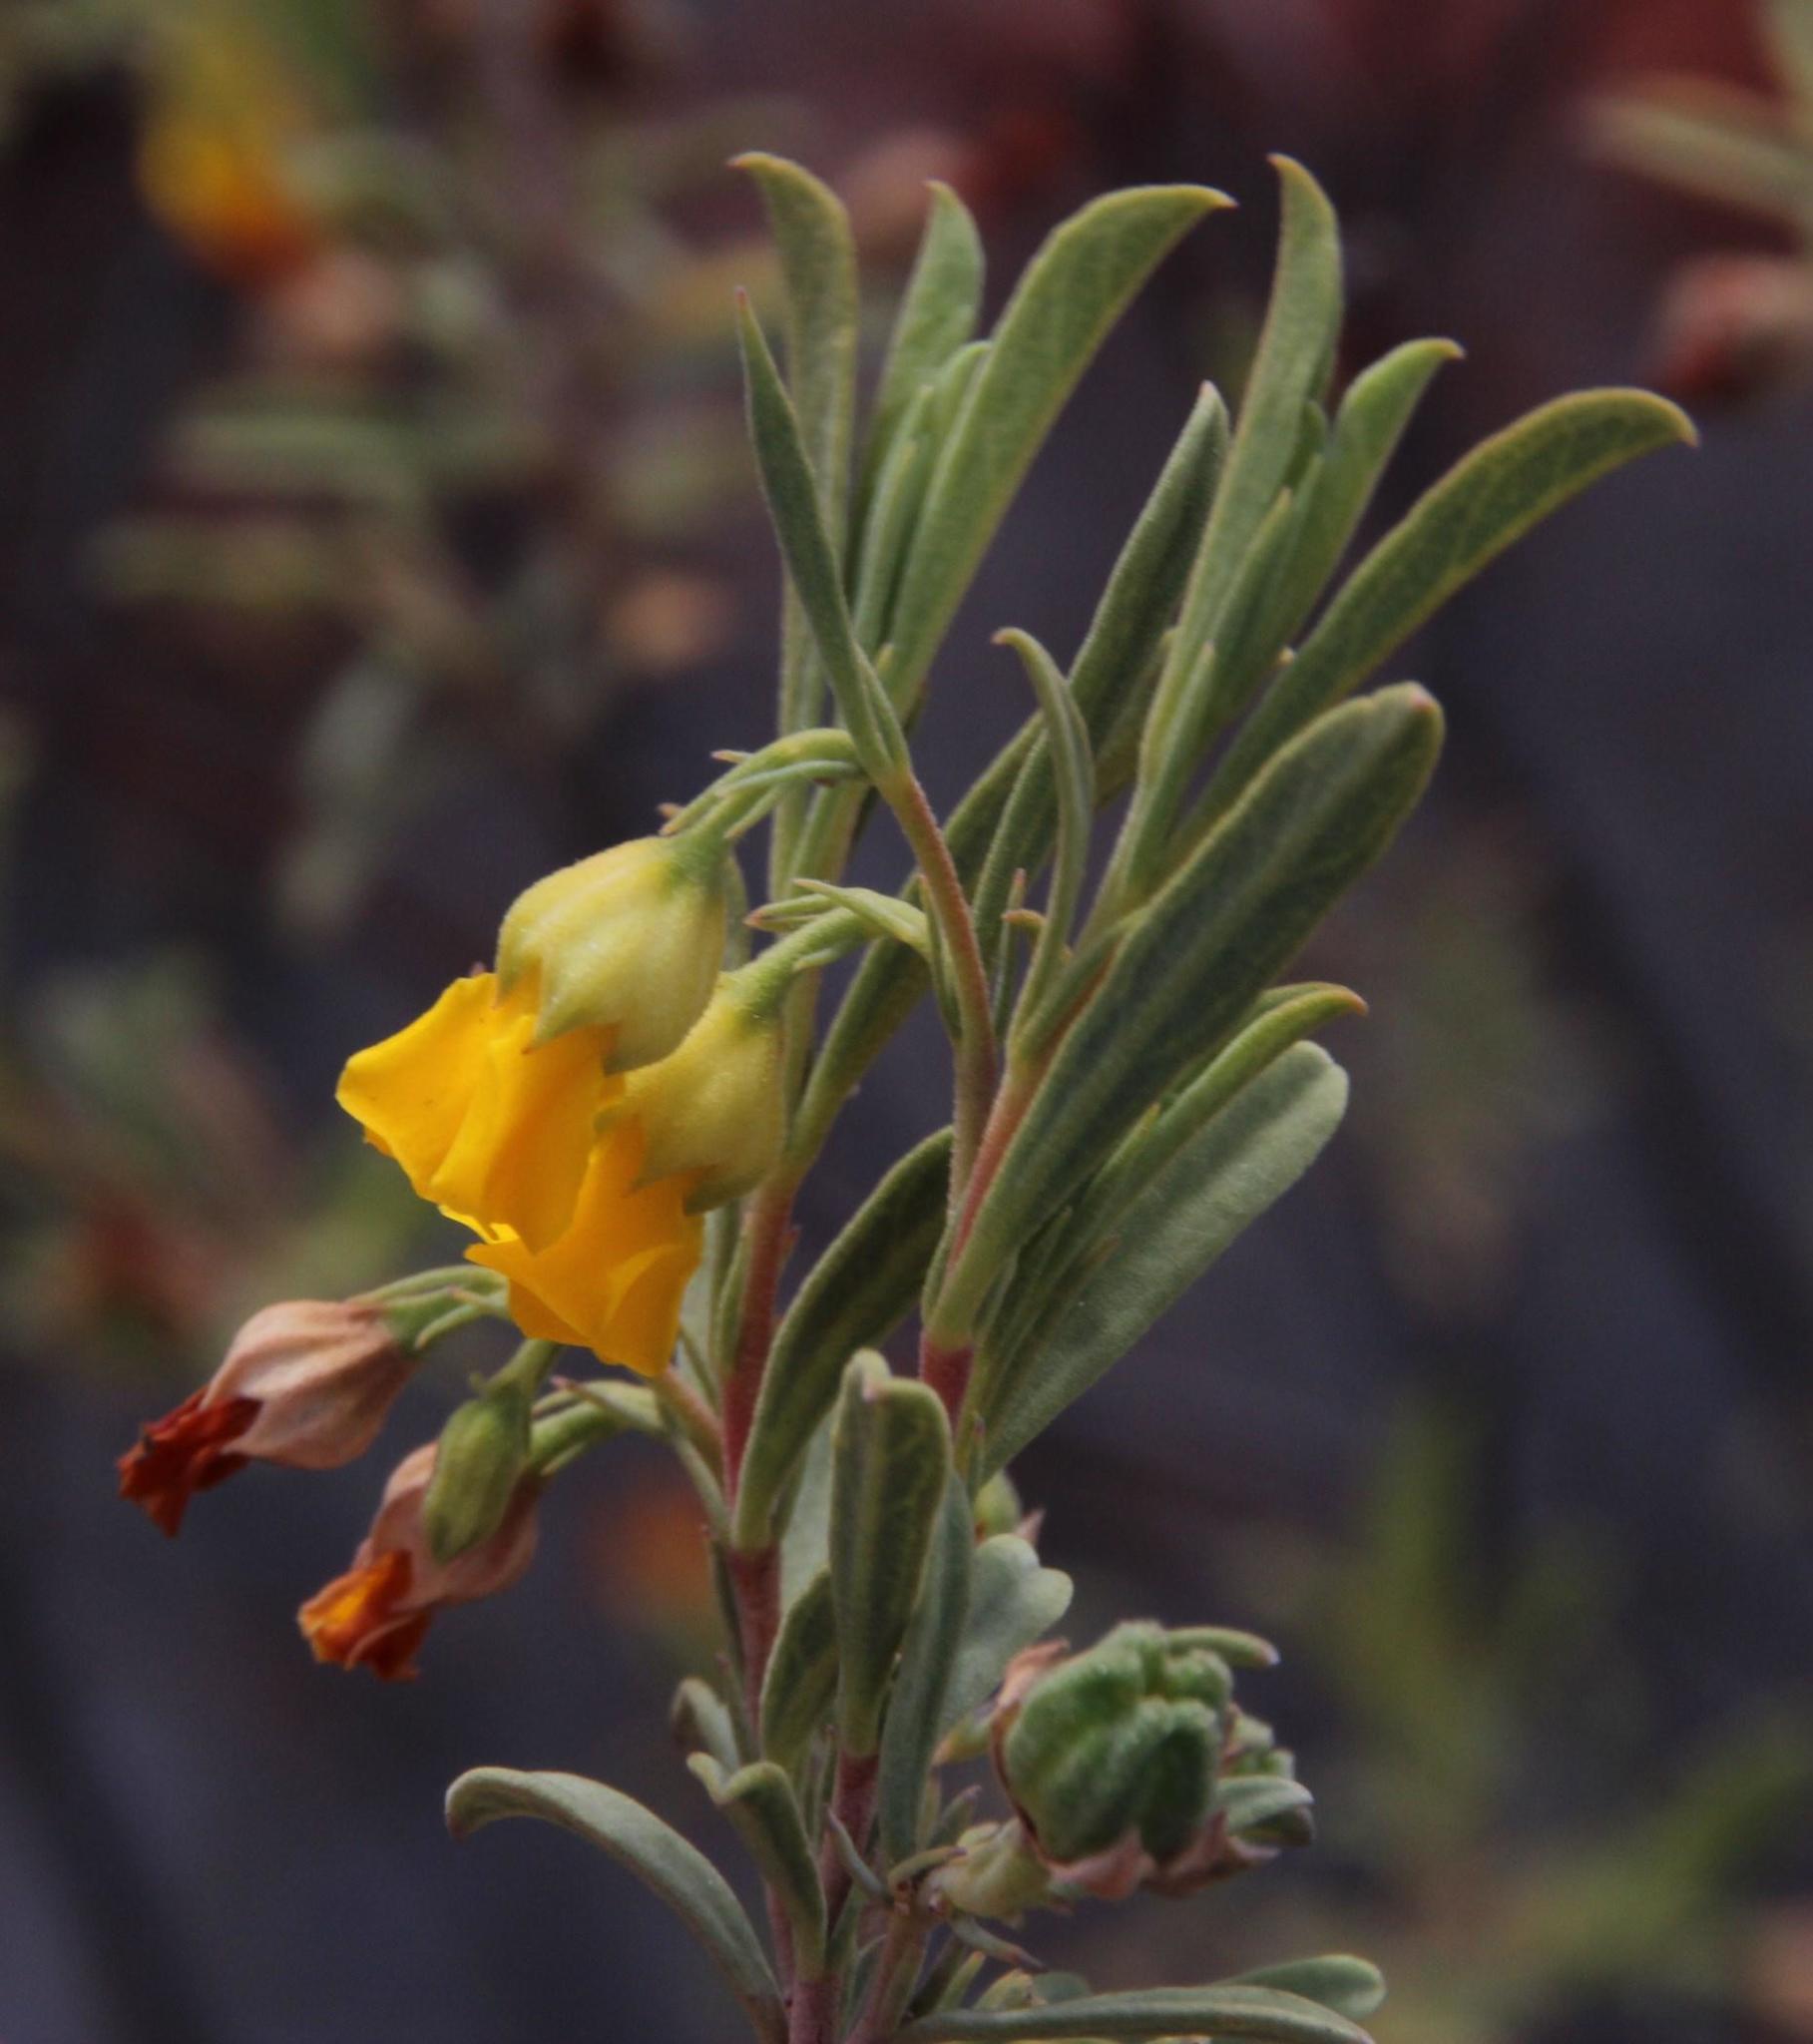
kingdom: Plantae
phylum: Tracheophyta
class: Magnoliopsida
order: Malvales
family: Malvaceae
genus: Hermannia
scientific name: Hermannia odorata
